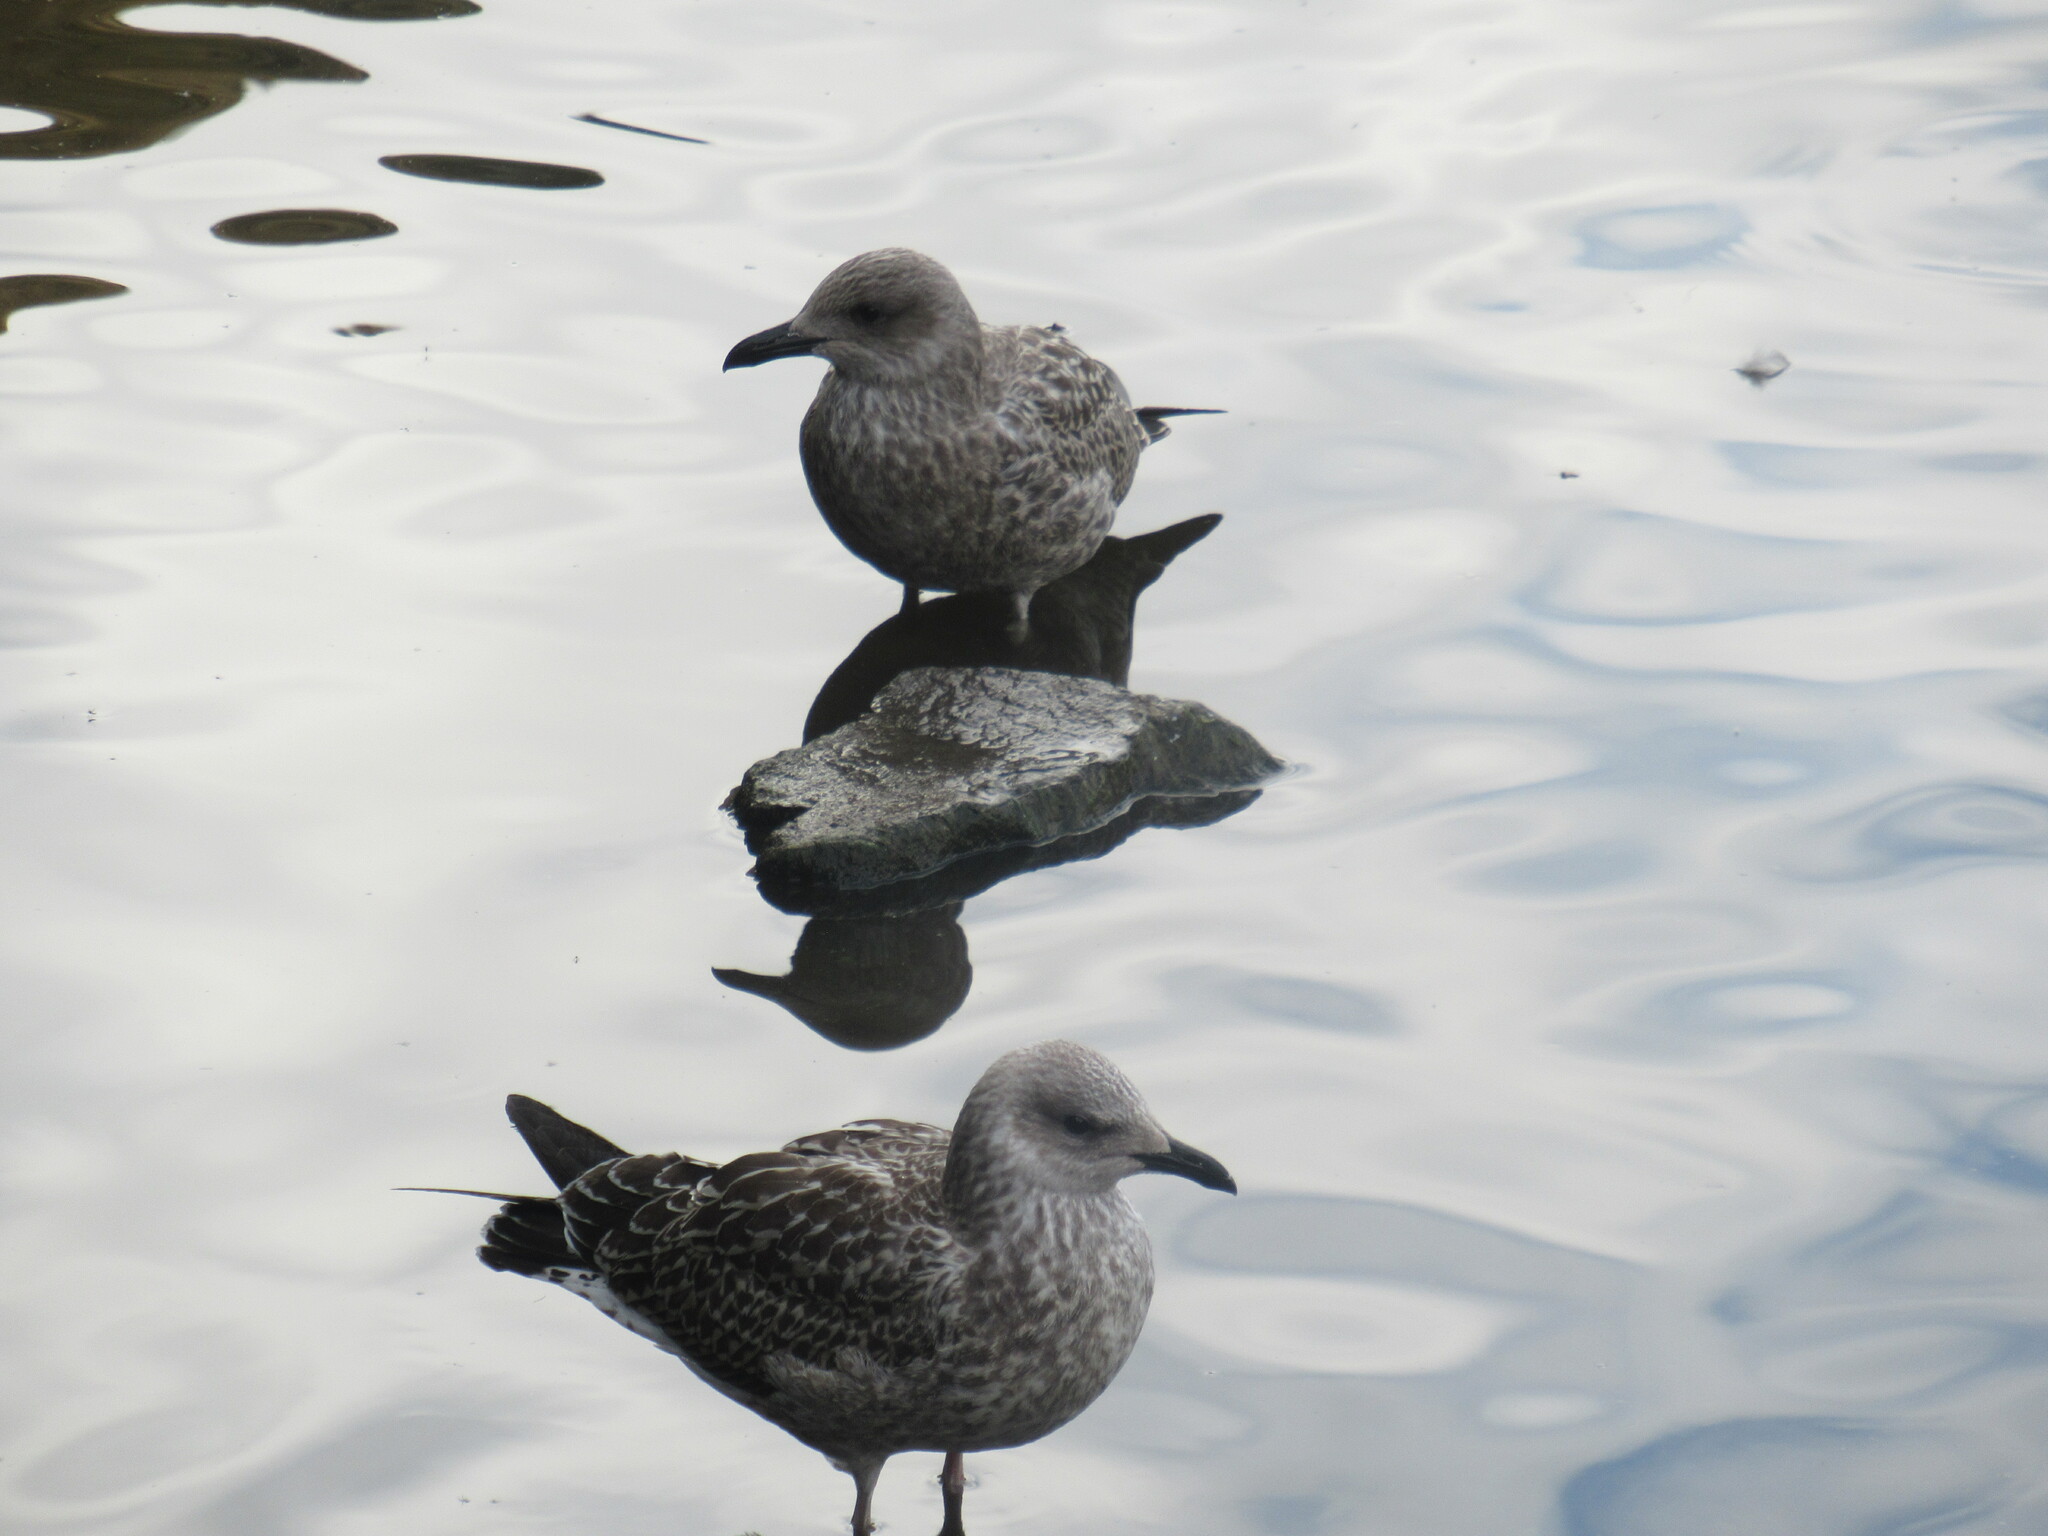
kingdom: Animalia
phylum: Chordata
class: Aves
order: Charadriiformes
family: Laridae
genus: Larus
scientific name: Larus argentatus
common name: Herring gull
